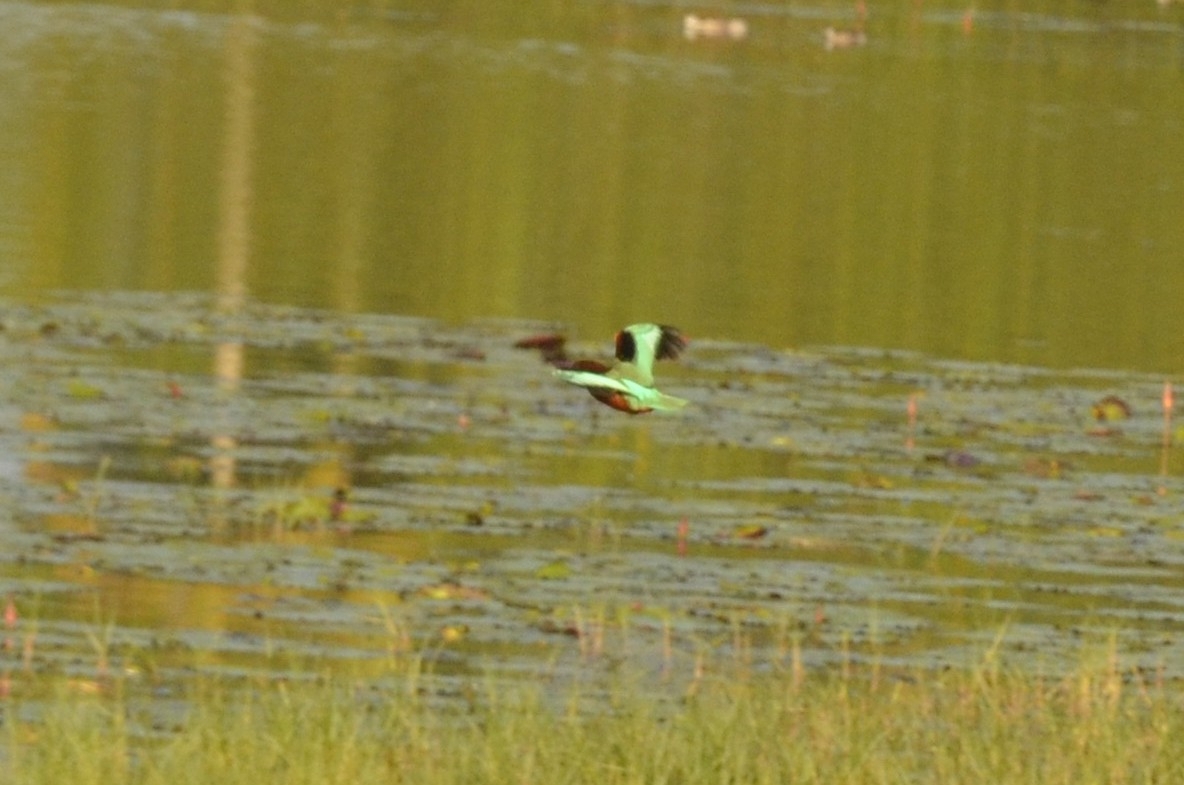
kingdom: Animalia
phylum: Chordata
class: Aves
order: Coraciiformes
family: Alcedinidae
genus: Halcyon
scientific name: Halcyon smyrnensis
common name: White-throated kingfisher
